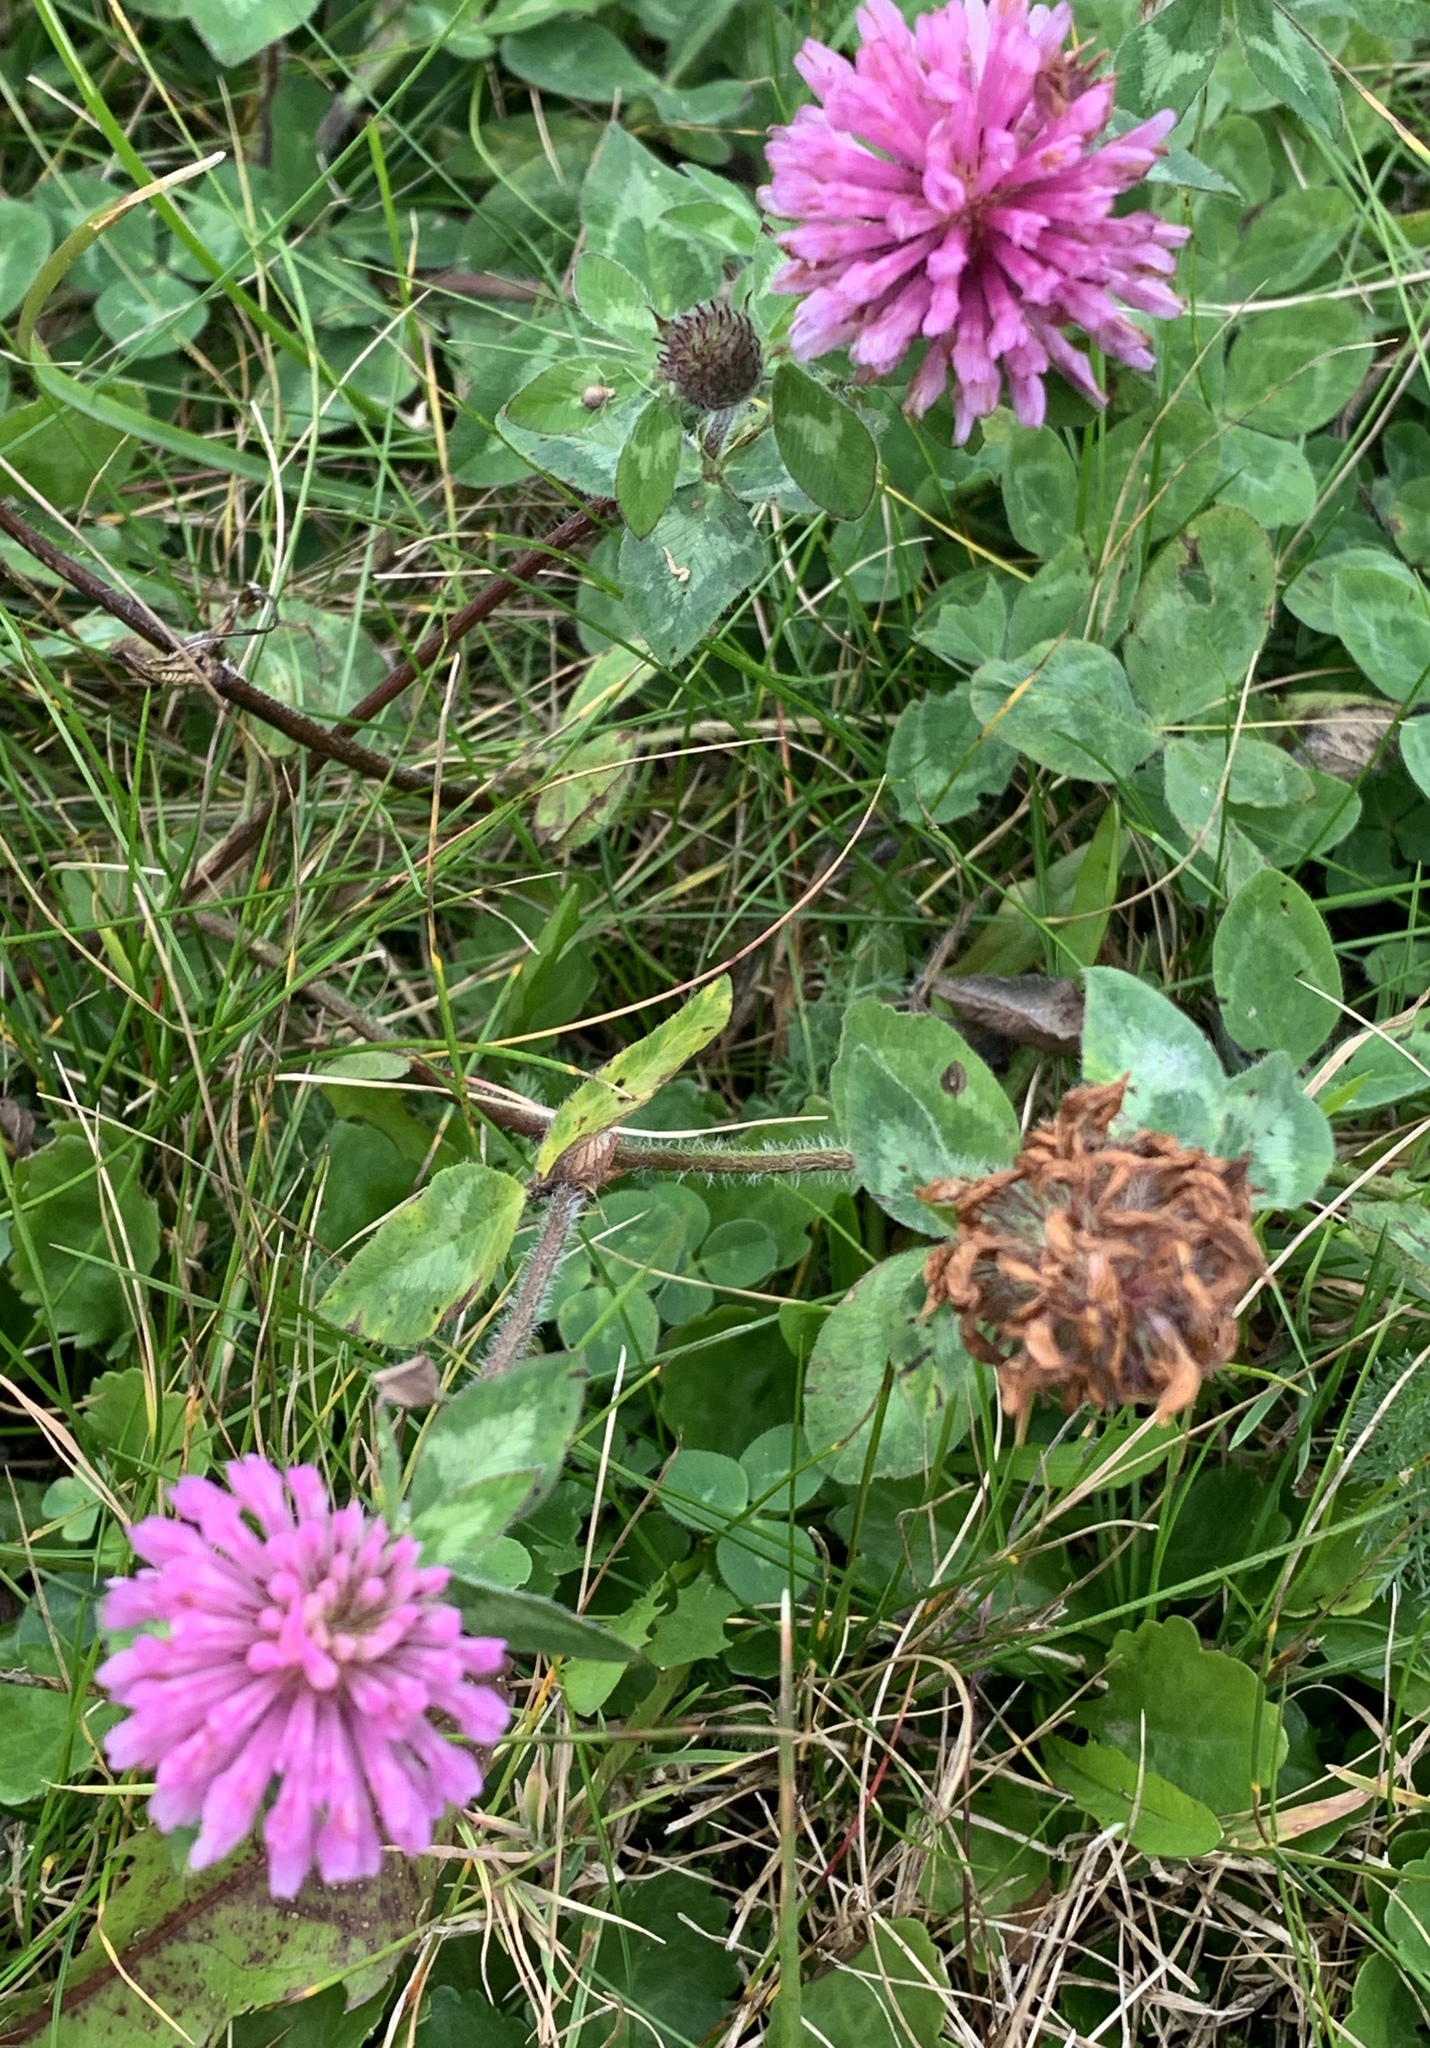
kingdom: Plantae
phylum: Tracheophyta
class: Magnoliopsida
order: Fabales
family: Fabaceae
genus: Trifolium
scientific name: Trifolium pratense
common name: Red clover
